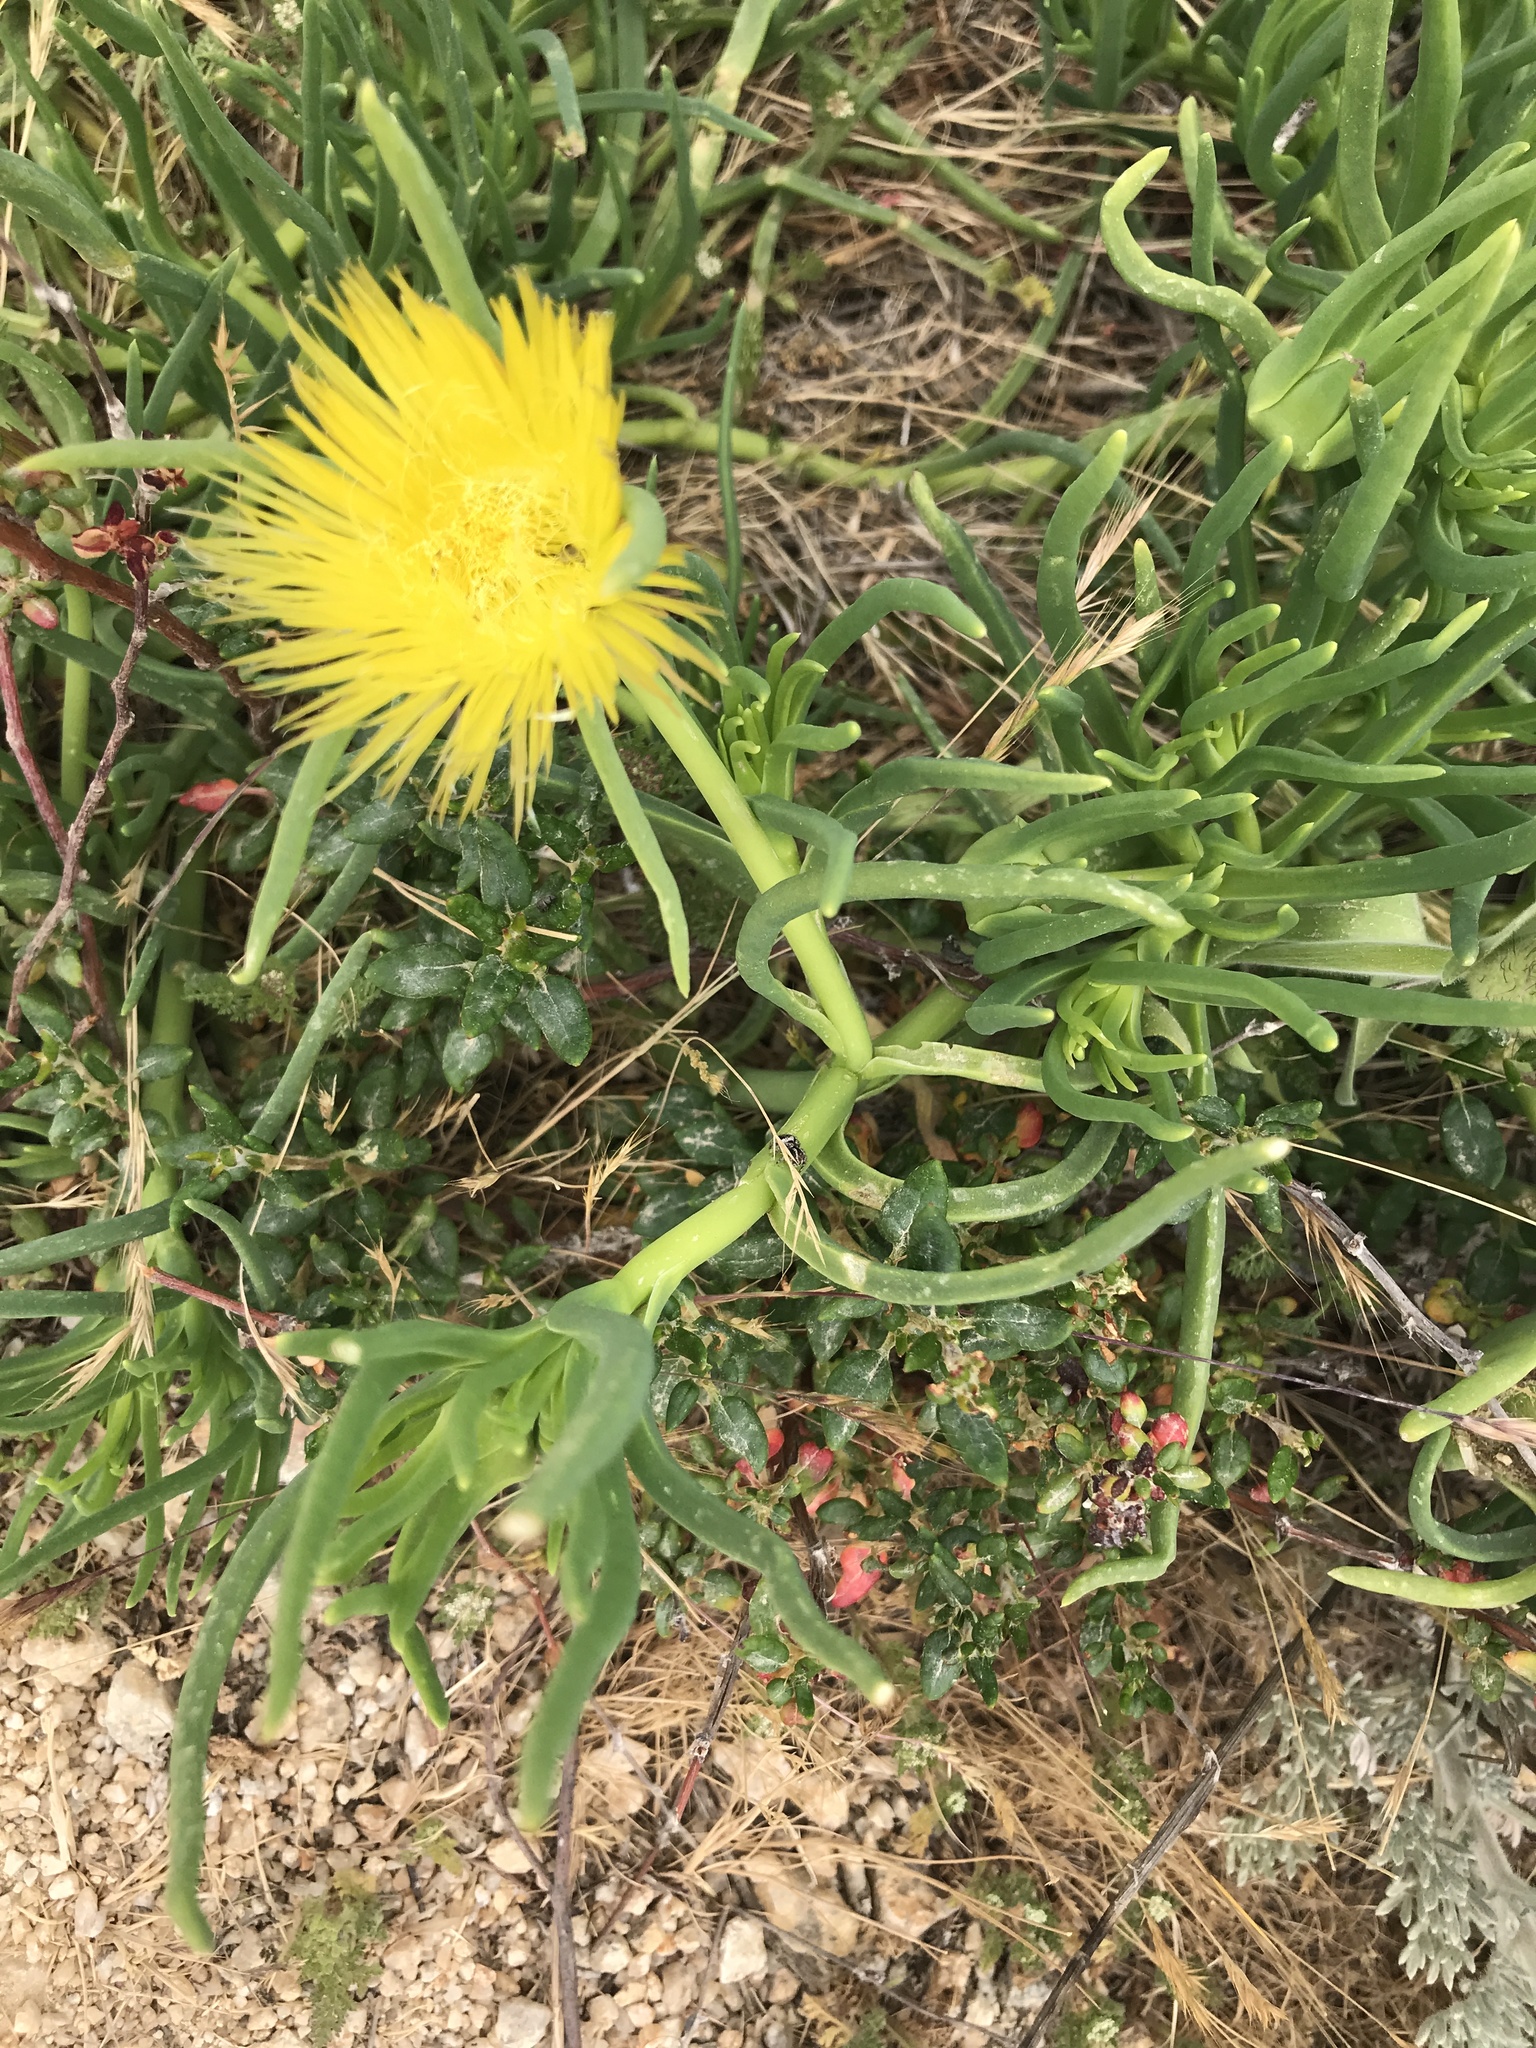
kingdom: Plantae
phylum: Tracheophyta
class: Magnoliopsida
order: Caryophyllales
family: Aizoaceae
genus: Conicosia
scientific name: Conicosia pugioniformis
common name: Narrow-leaved iceplant
